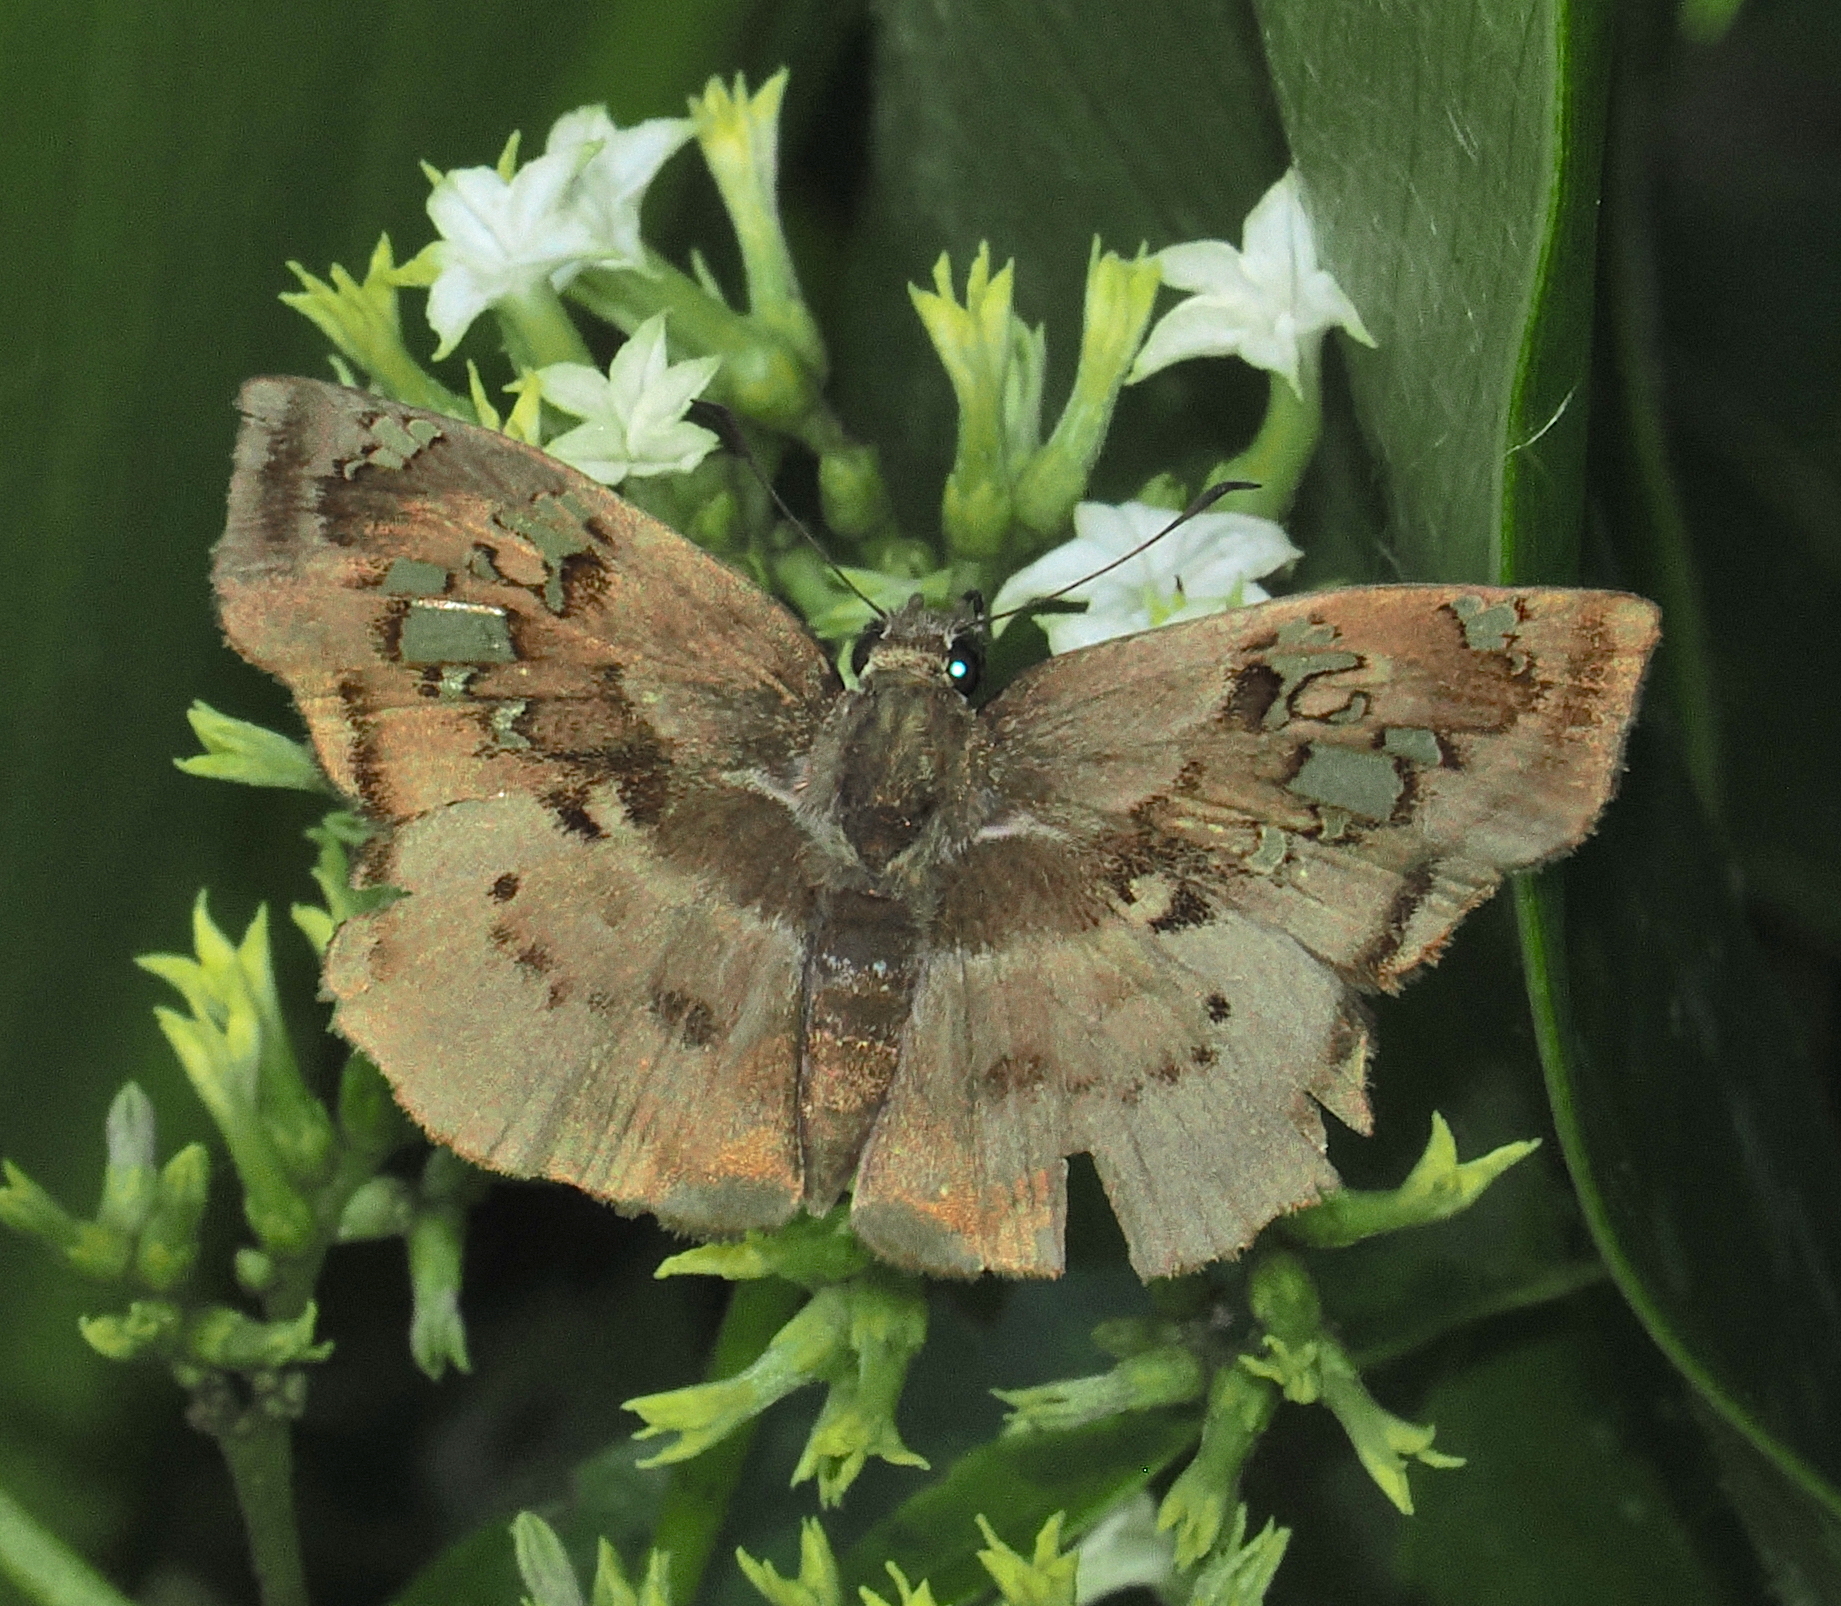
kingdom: Animalia
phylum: Arthropoda
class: Insecta
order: Lepidoptera
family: Hesperiidae
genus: Quadrus
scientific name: Quadrus lugubris
